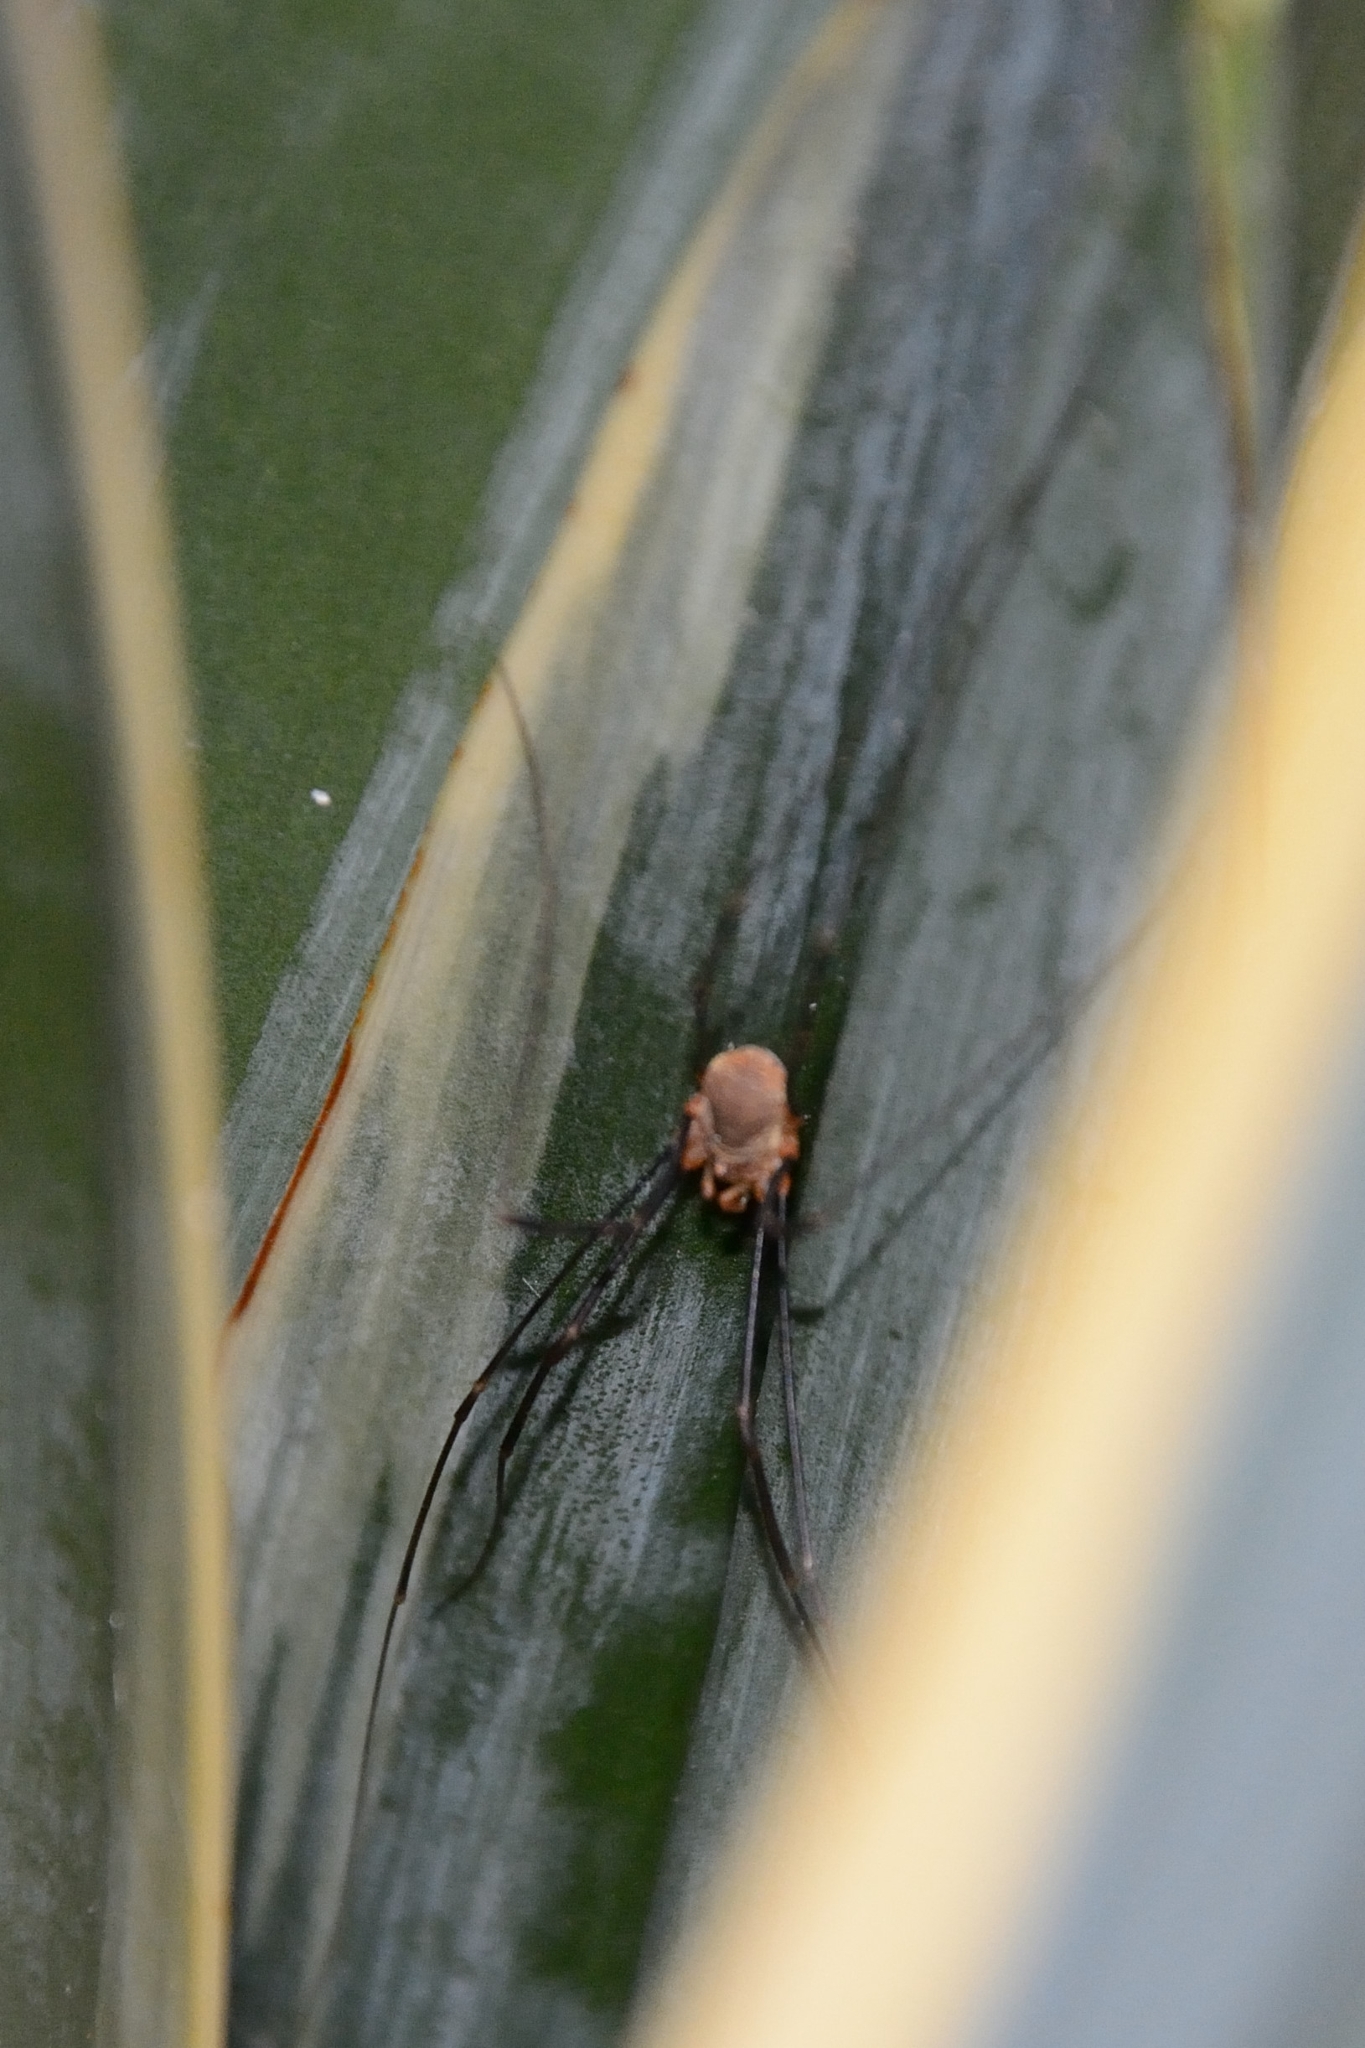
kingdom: Animalia
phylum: Arthropoda
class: Arachnida
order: Opiliones
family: Phalangiidae
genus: Opilio
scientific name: Opilio canestrinii
